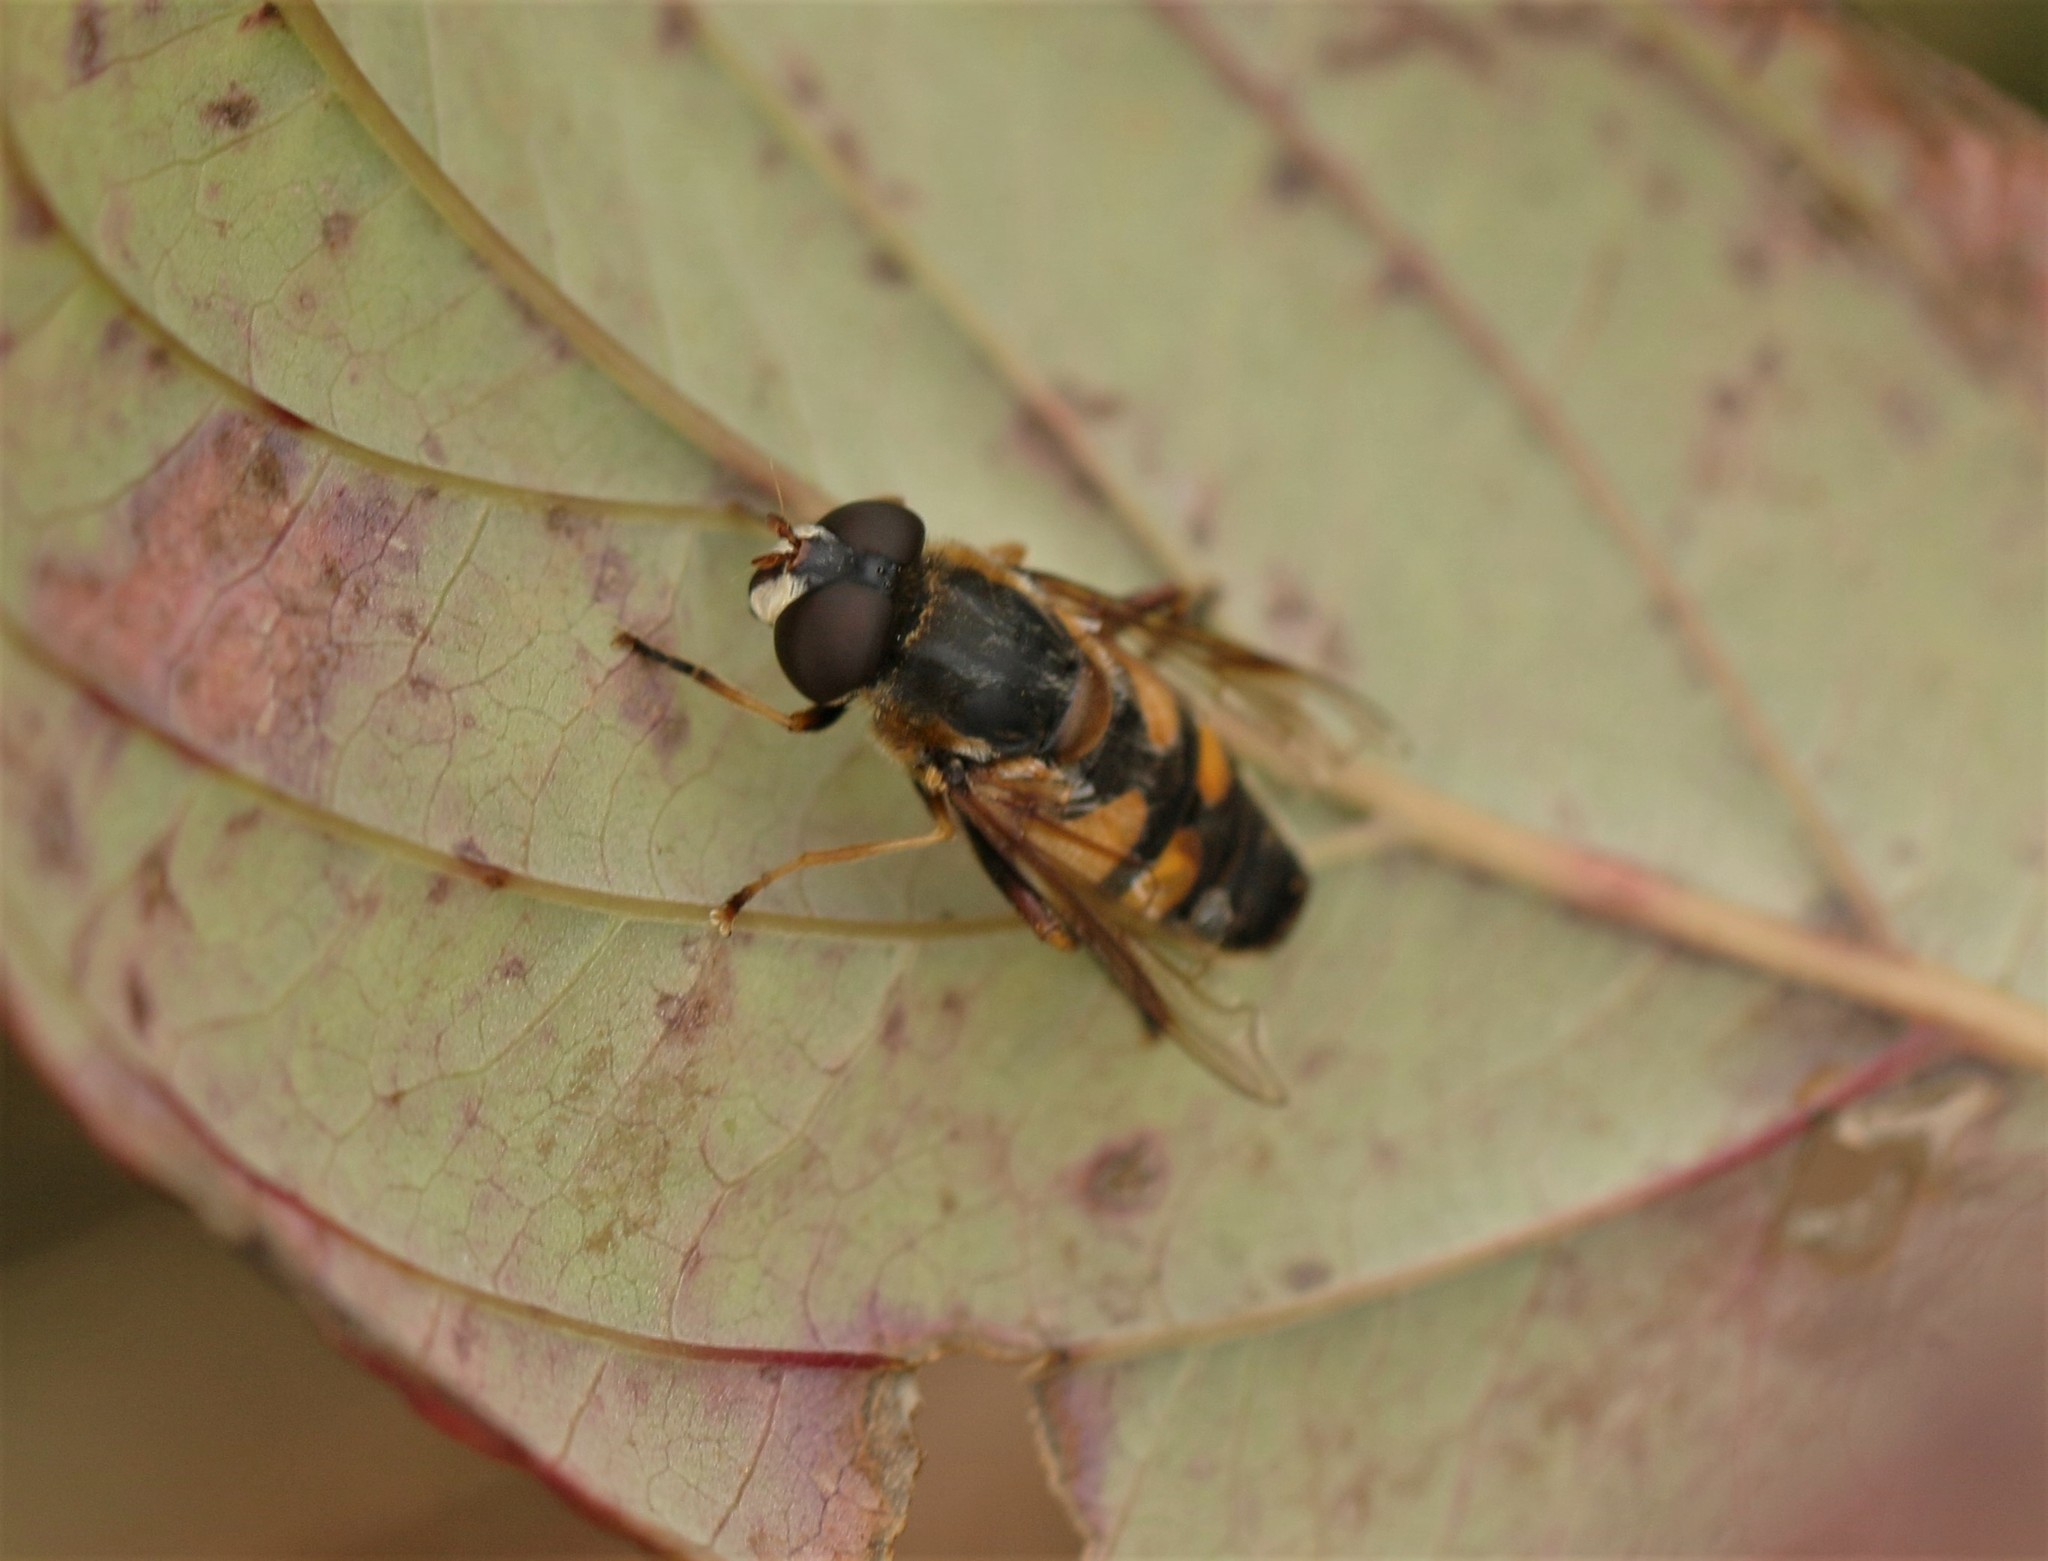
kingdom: Animalia
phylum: Arthropoda
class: Insecta
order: Diptera
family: Syrphidae
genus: Helophilus
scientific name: Helophilus fasciatus
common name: Narrow-headed marsh fly
